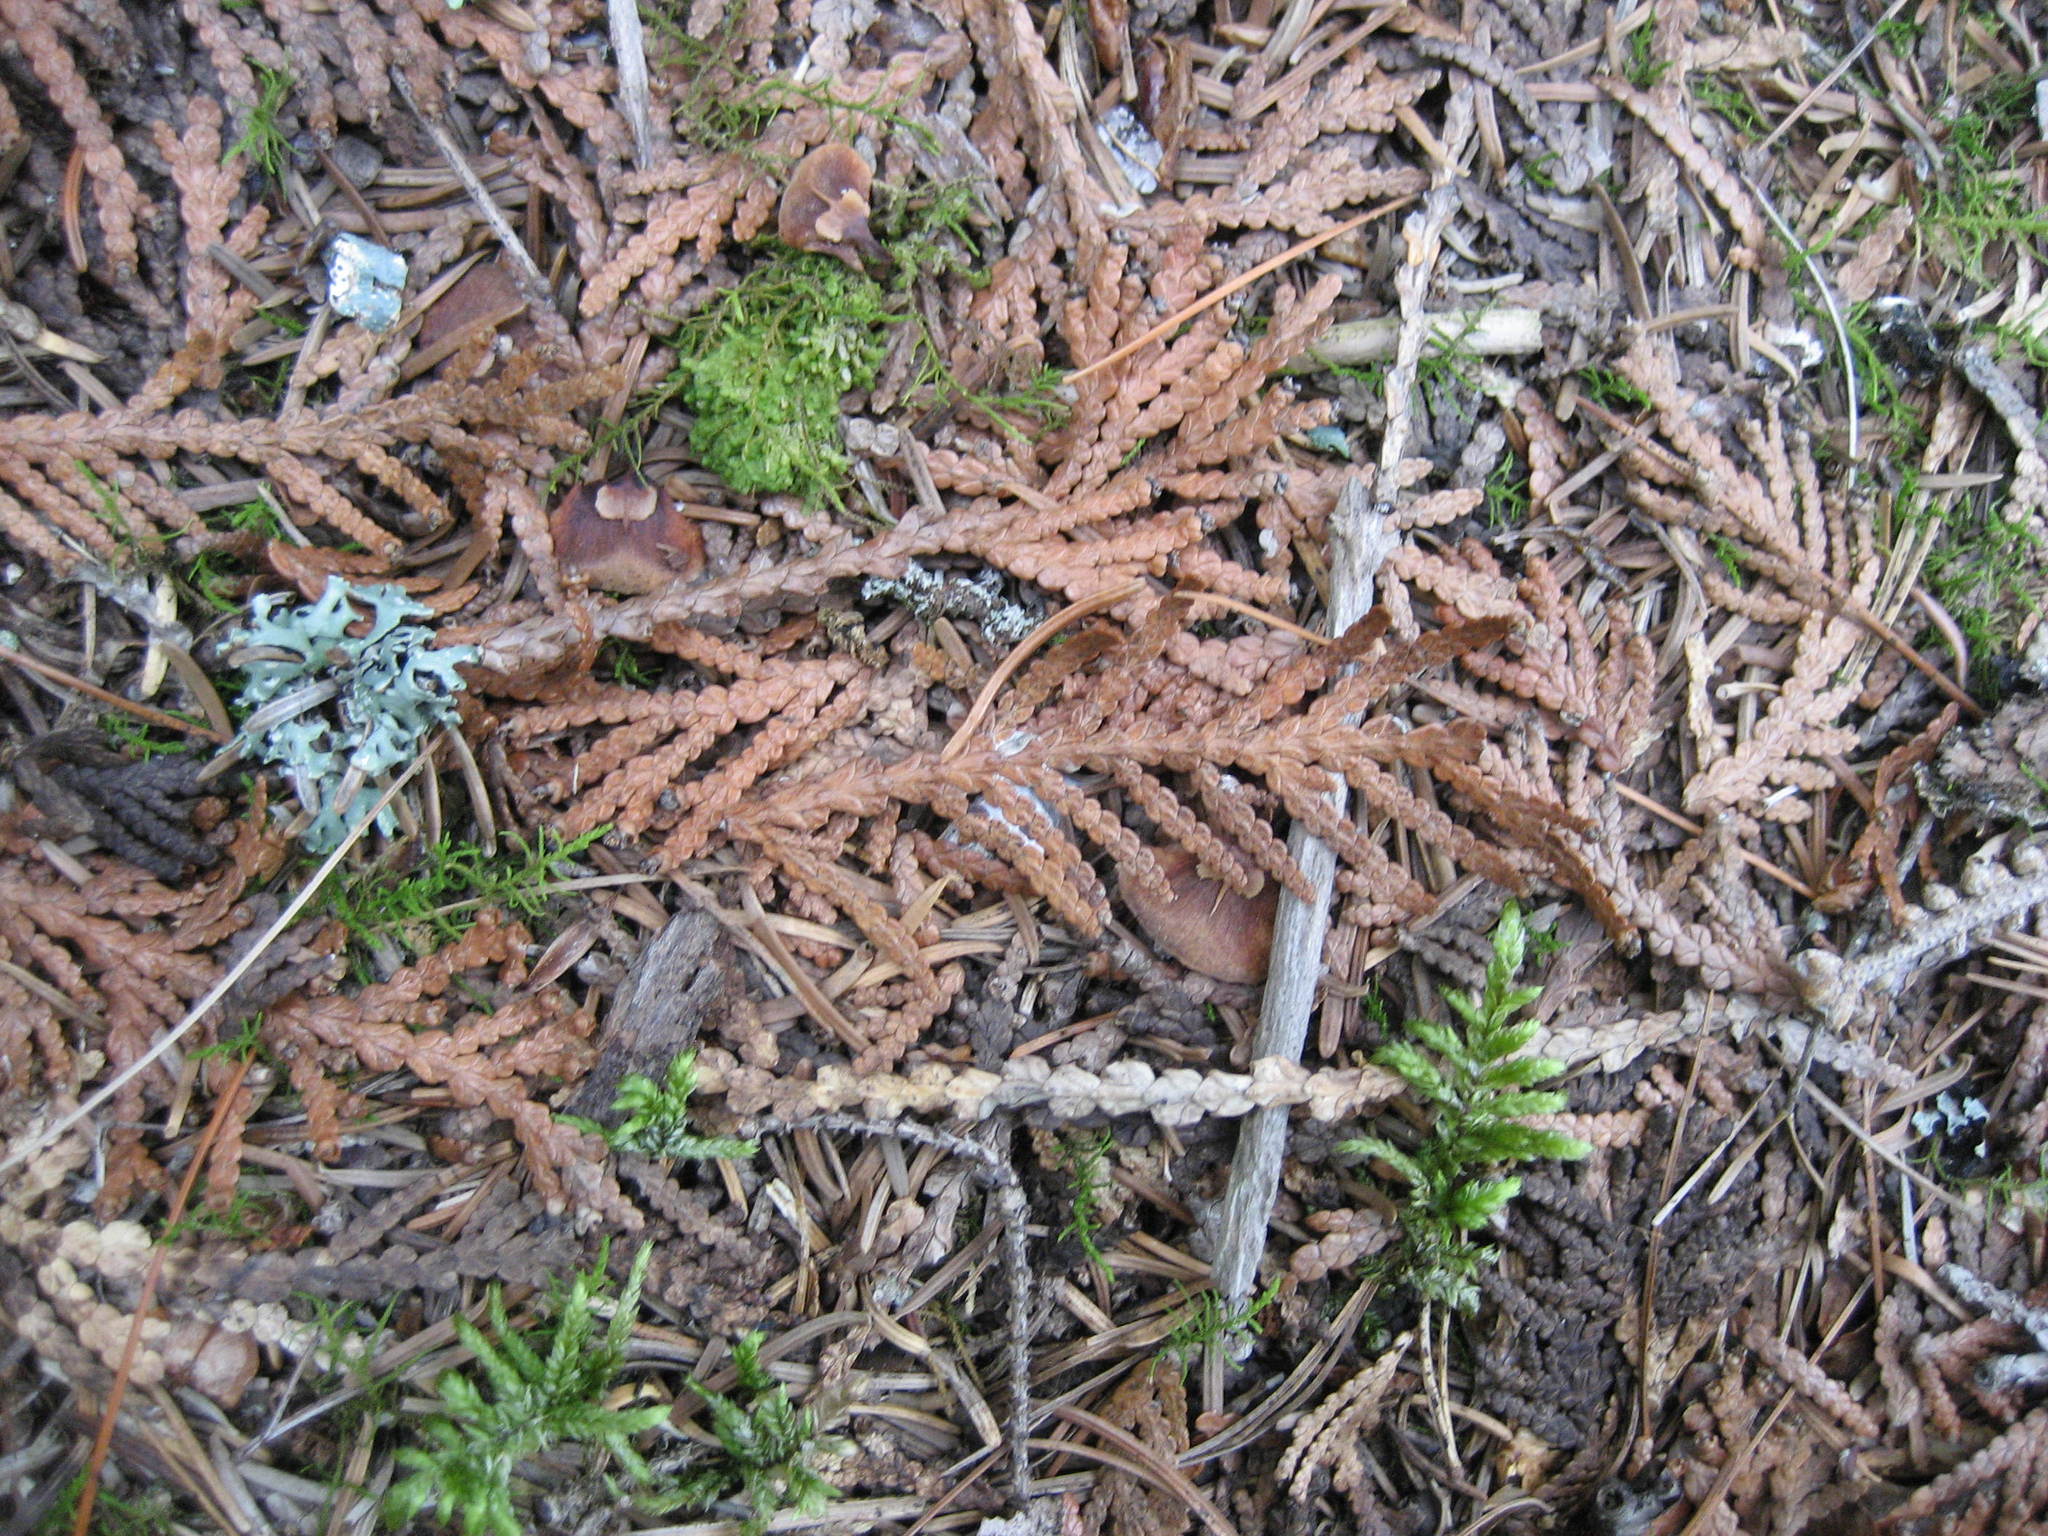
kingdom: Plantae
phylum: Tracheophyta
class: Pinopsida
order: Pinales
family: Cupressaceae
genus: Thuja
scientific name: Thuja occidentalis
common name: Northern white-cedar
